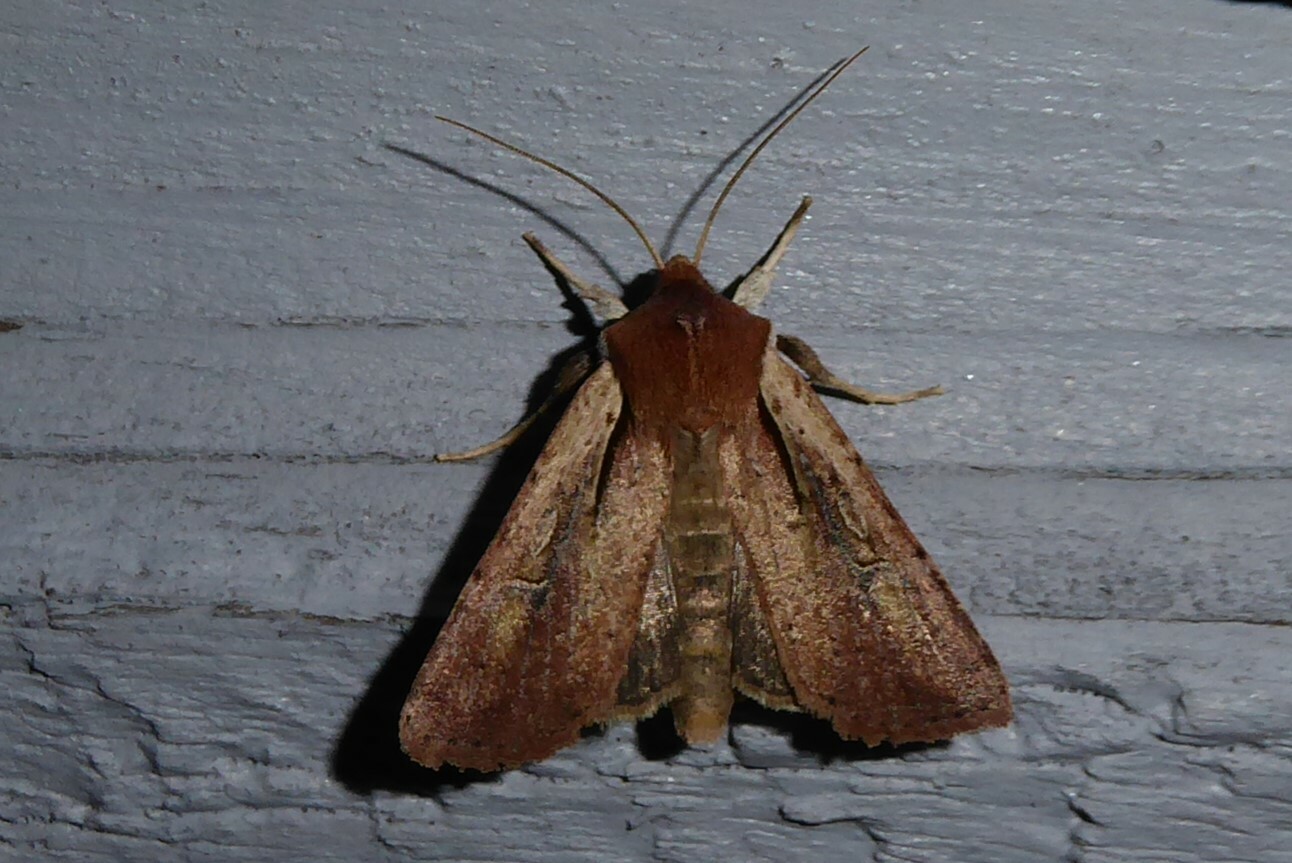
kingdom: Animalia
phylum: Arthropoda
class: Insecta
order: Lepidoptera
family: Noctuidae
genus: Ichneutica
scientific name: Ichneutica atristriga
